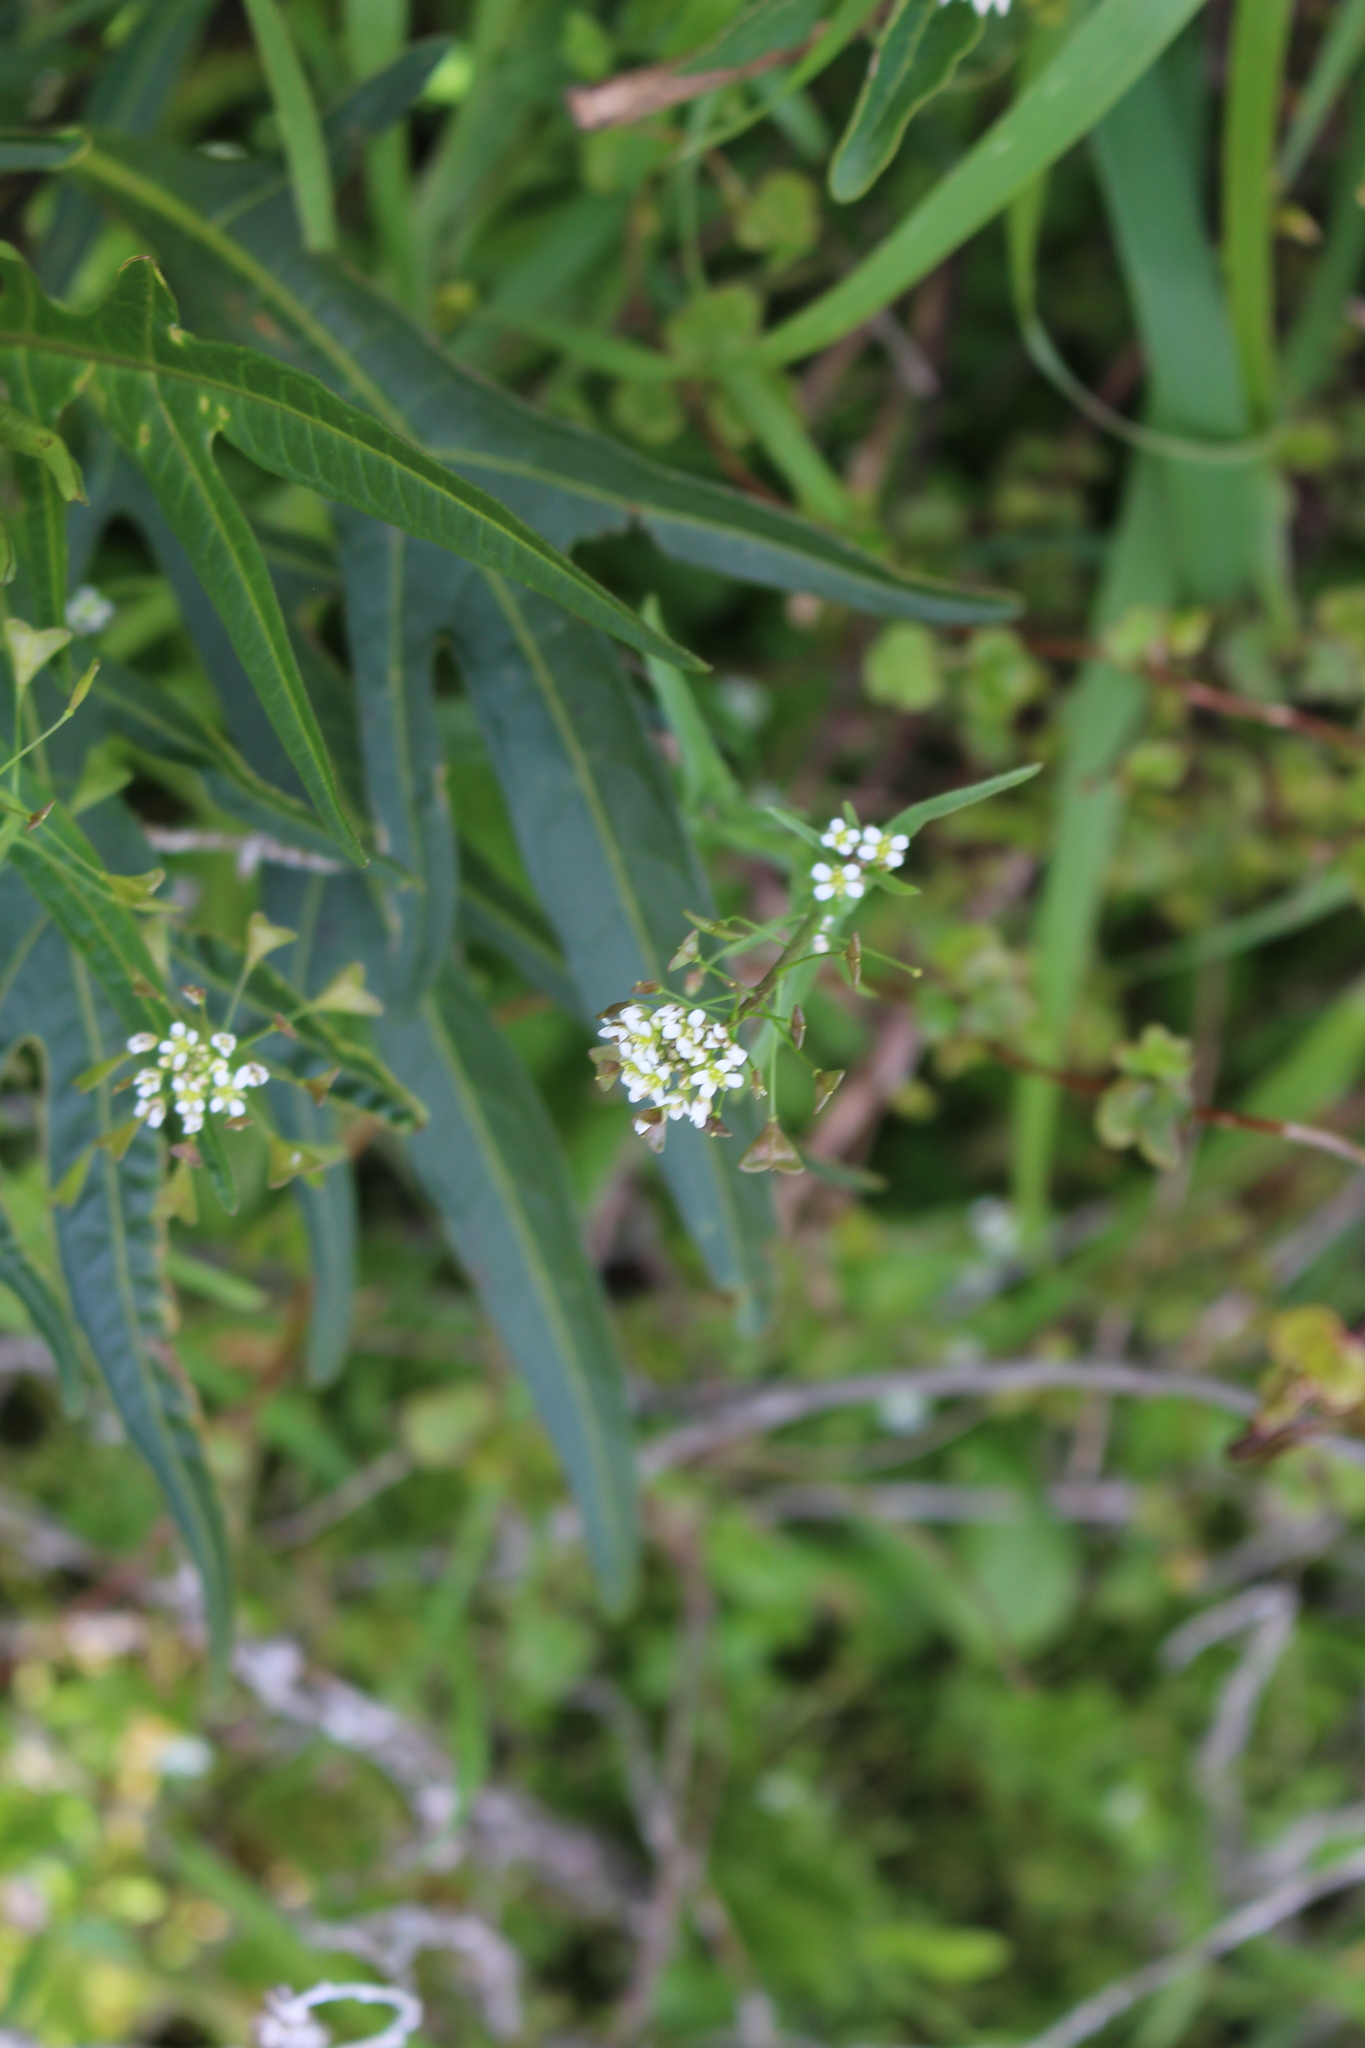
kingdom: Plantae
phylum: Tracheophyta
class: Magnoliopsida
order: Brassicales
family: Brassicaceae
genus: Capsella
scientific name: Capsella bursa-pastoris
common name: Shepherd's purse
